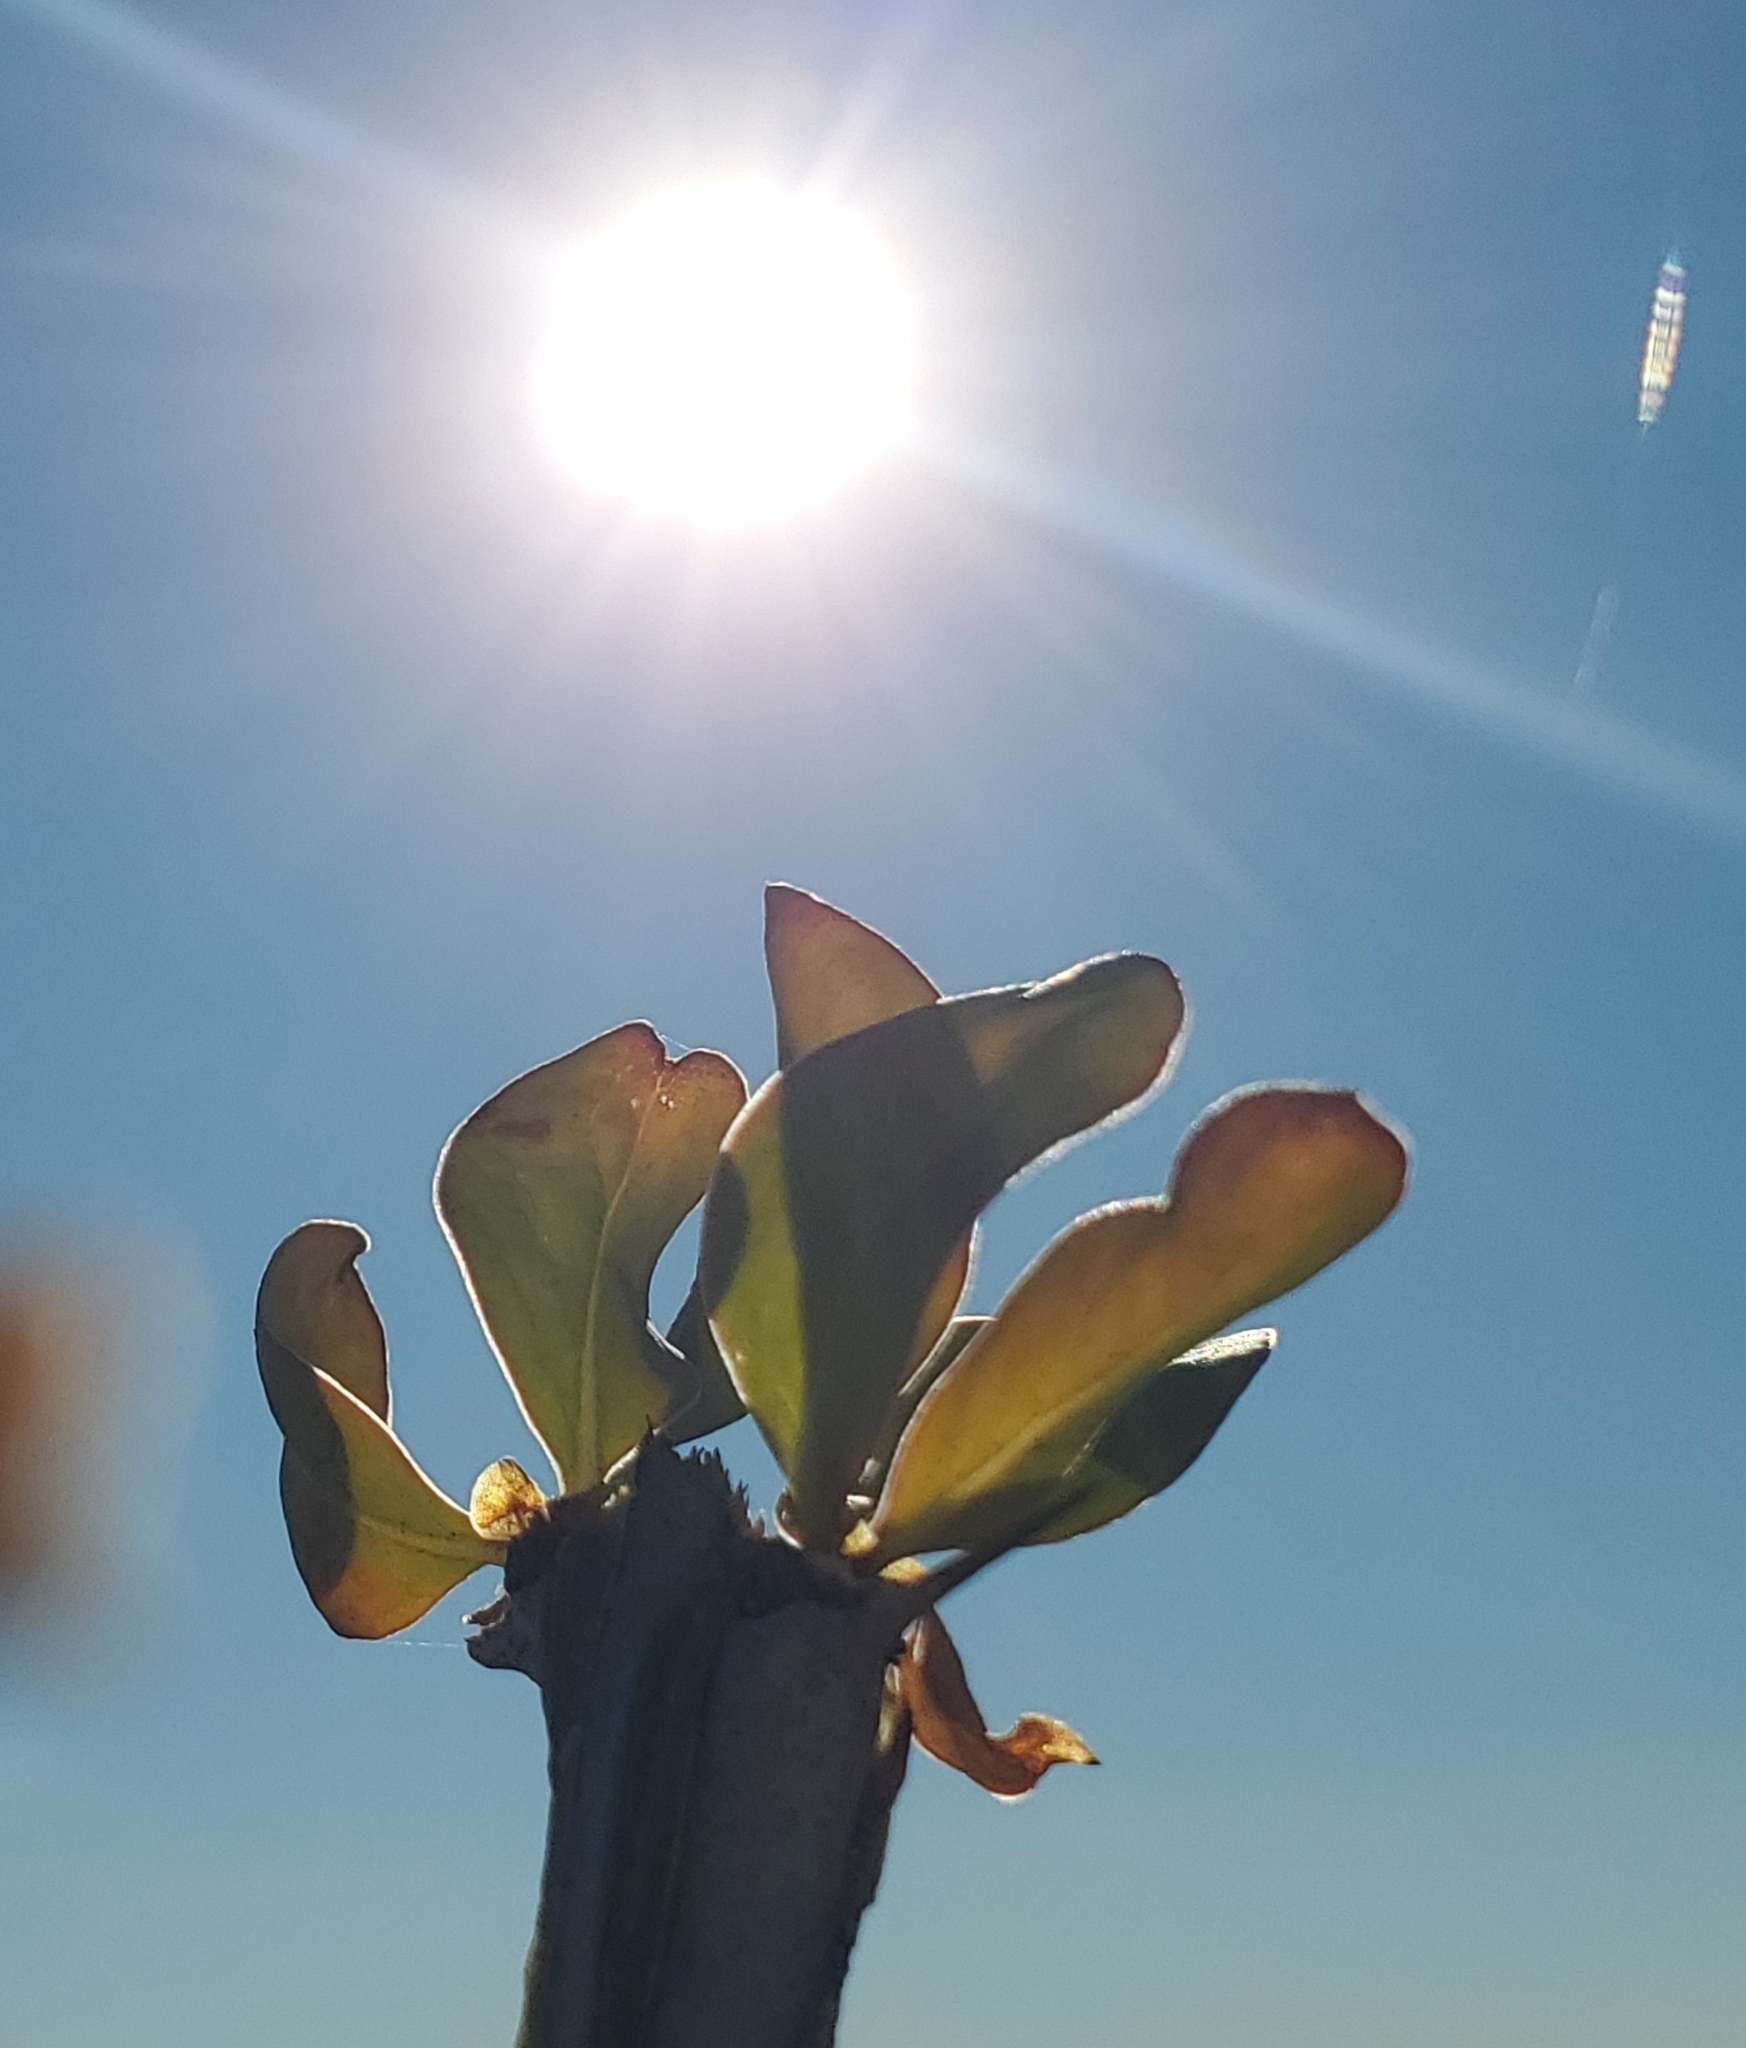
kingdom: Plantae
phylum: Tracheophyta
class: Magnoliopsida
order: Ericales
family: Fouquieriaceae
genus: Fouquieria
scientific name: Fouquieria splendens
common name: Vine-cactus
